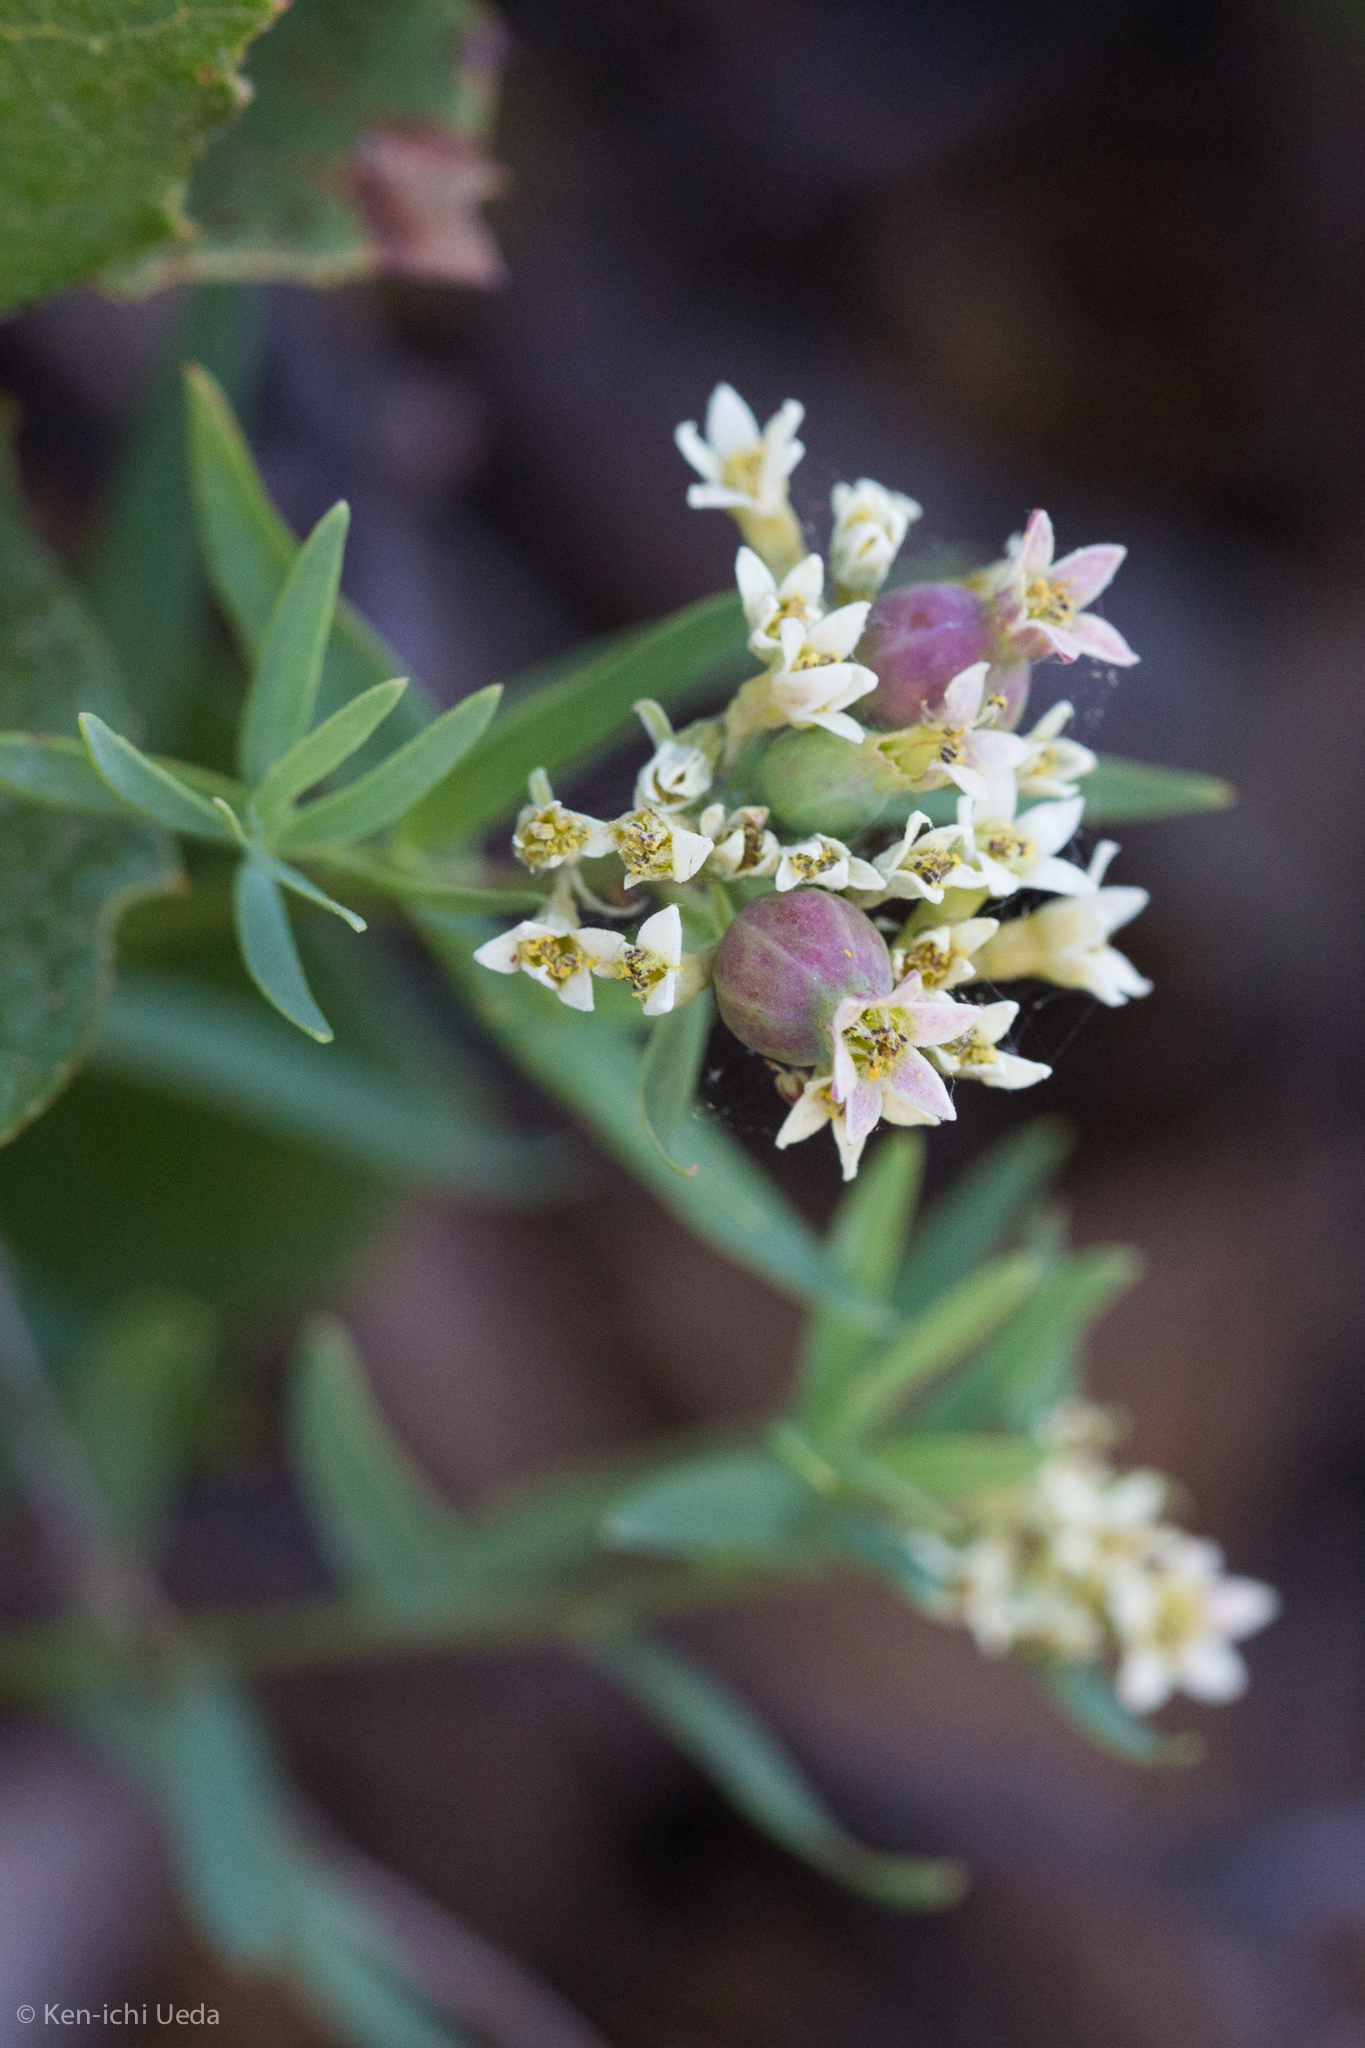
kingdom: Plantae
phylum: Tracheophyta
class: Magnoliopsida
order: Santalales
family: Comandraceae
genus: Comandra
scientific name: Comandra umbellata
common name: Bastard toadflax
